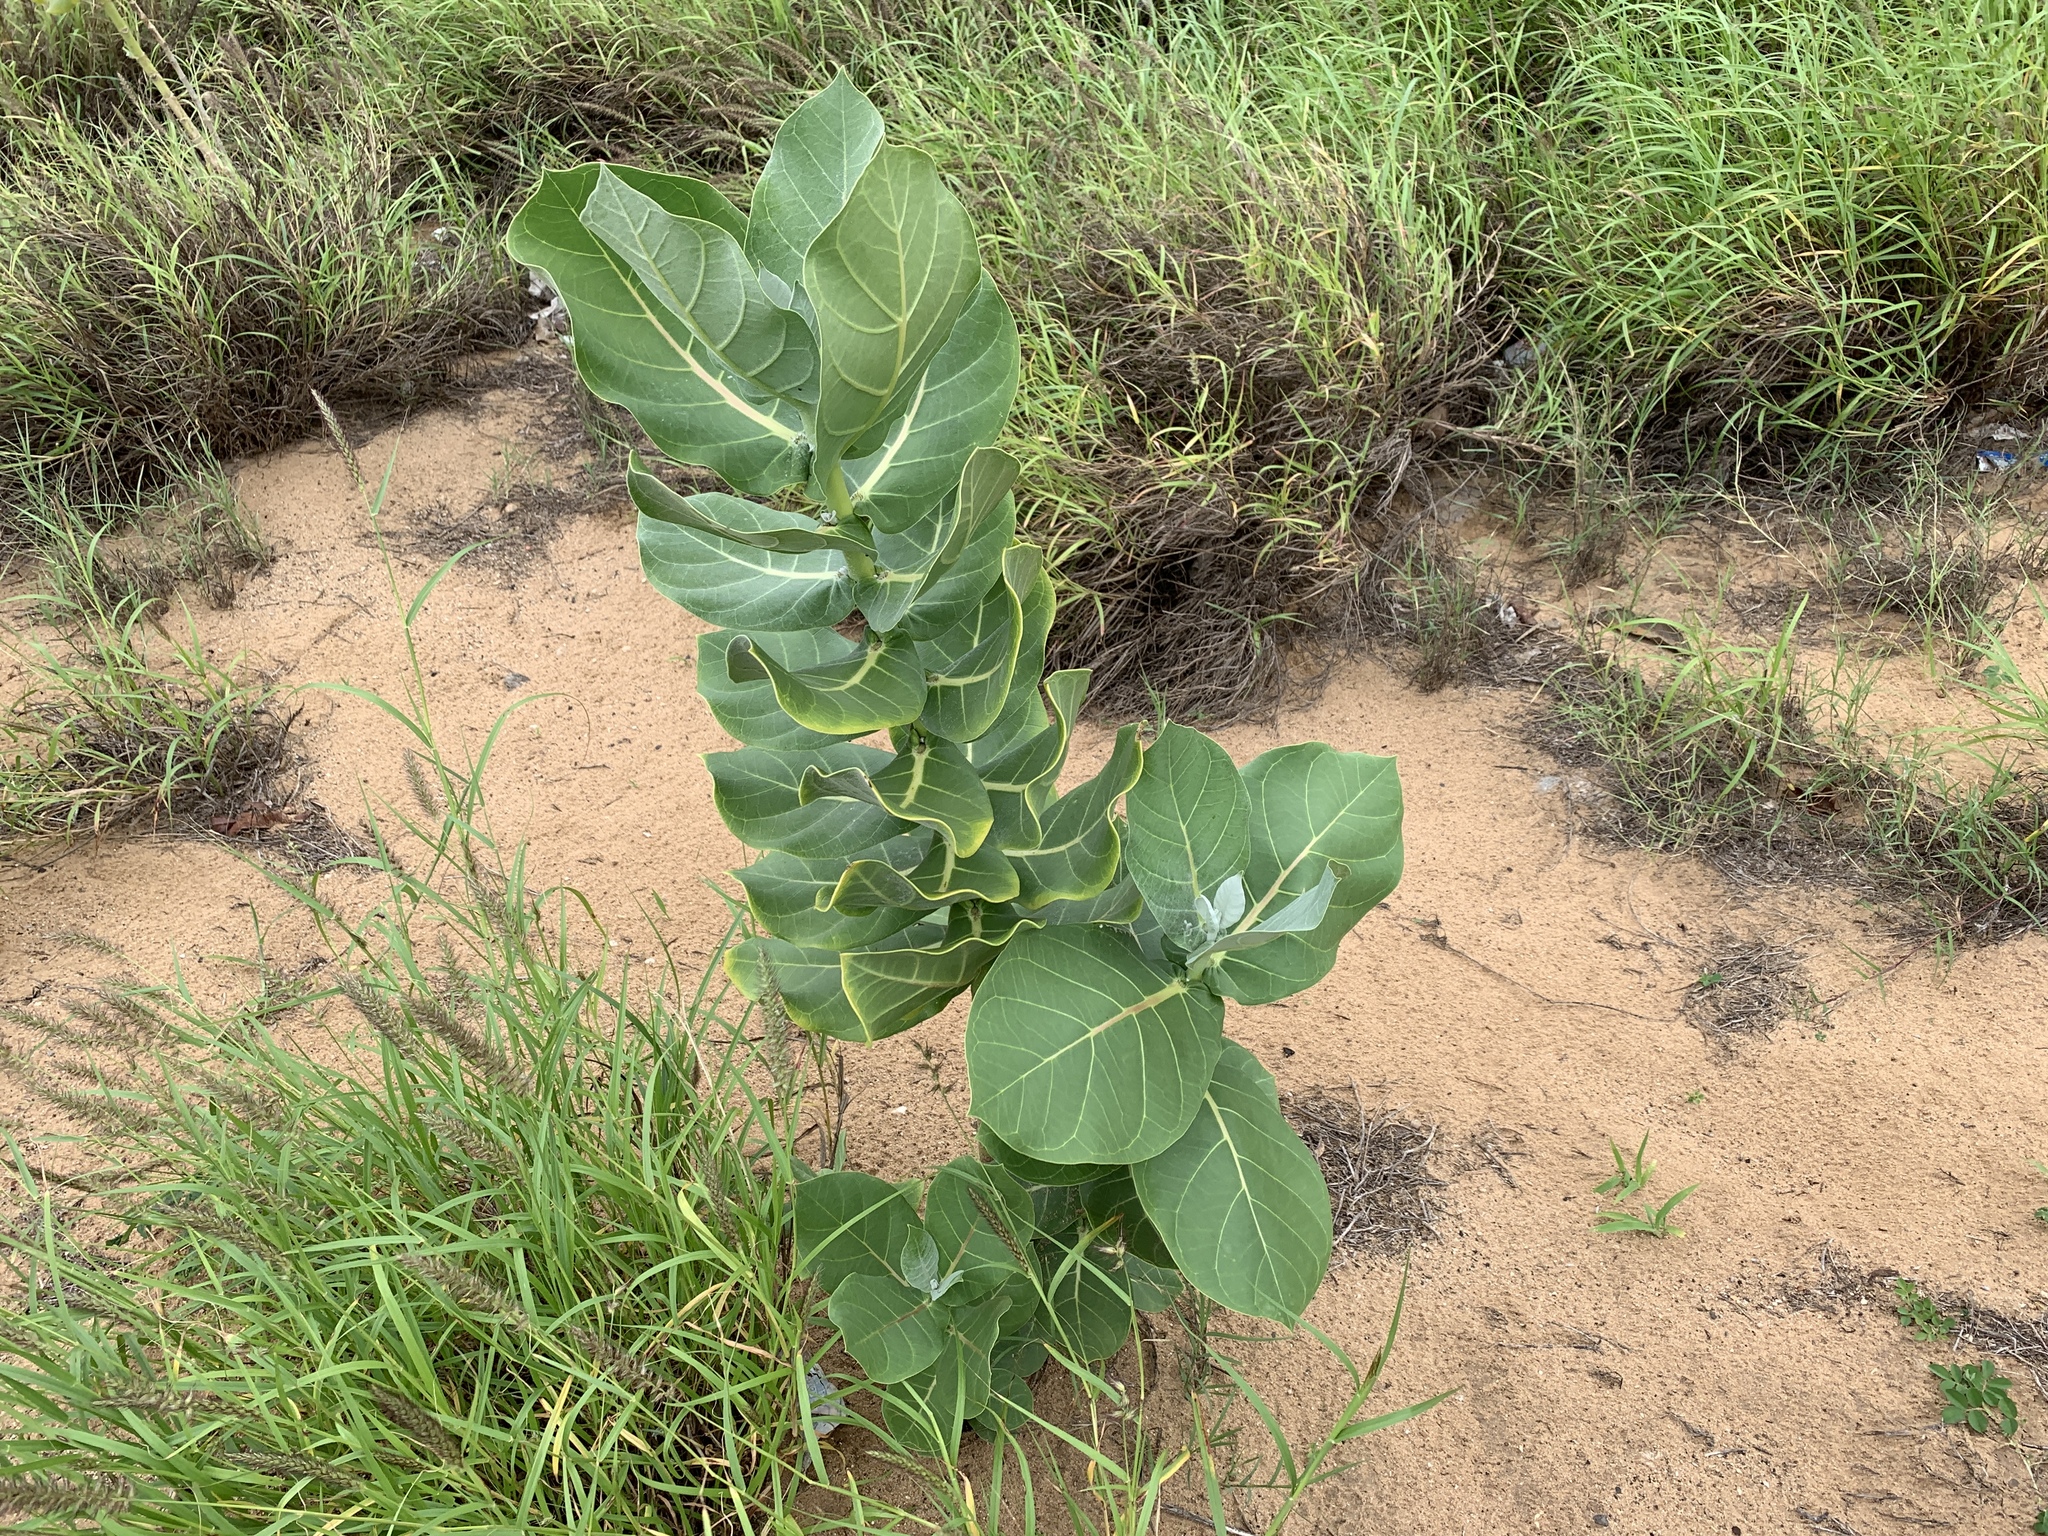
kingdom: Plantae
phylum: Tracheophyta
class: Magnoliopsida
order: Gentianales
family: Apocynaceae
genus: Calotropis
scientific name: Calotropis procera
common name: Roostertree
